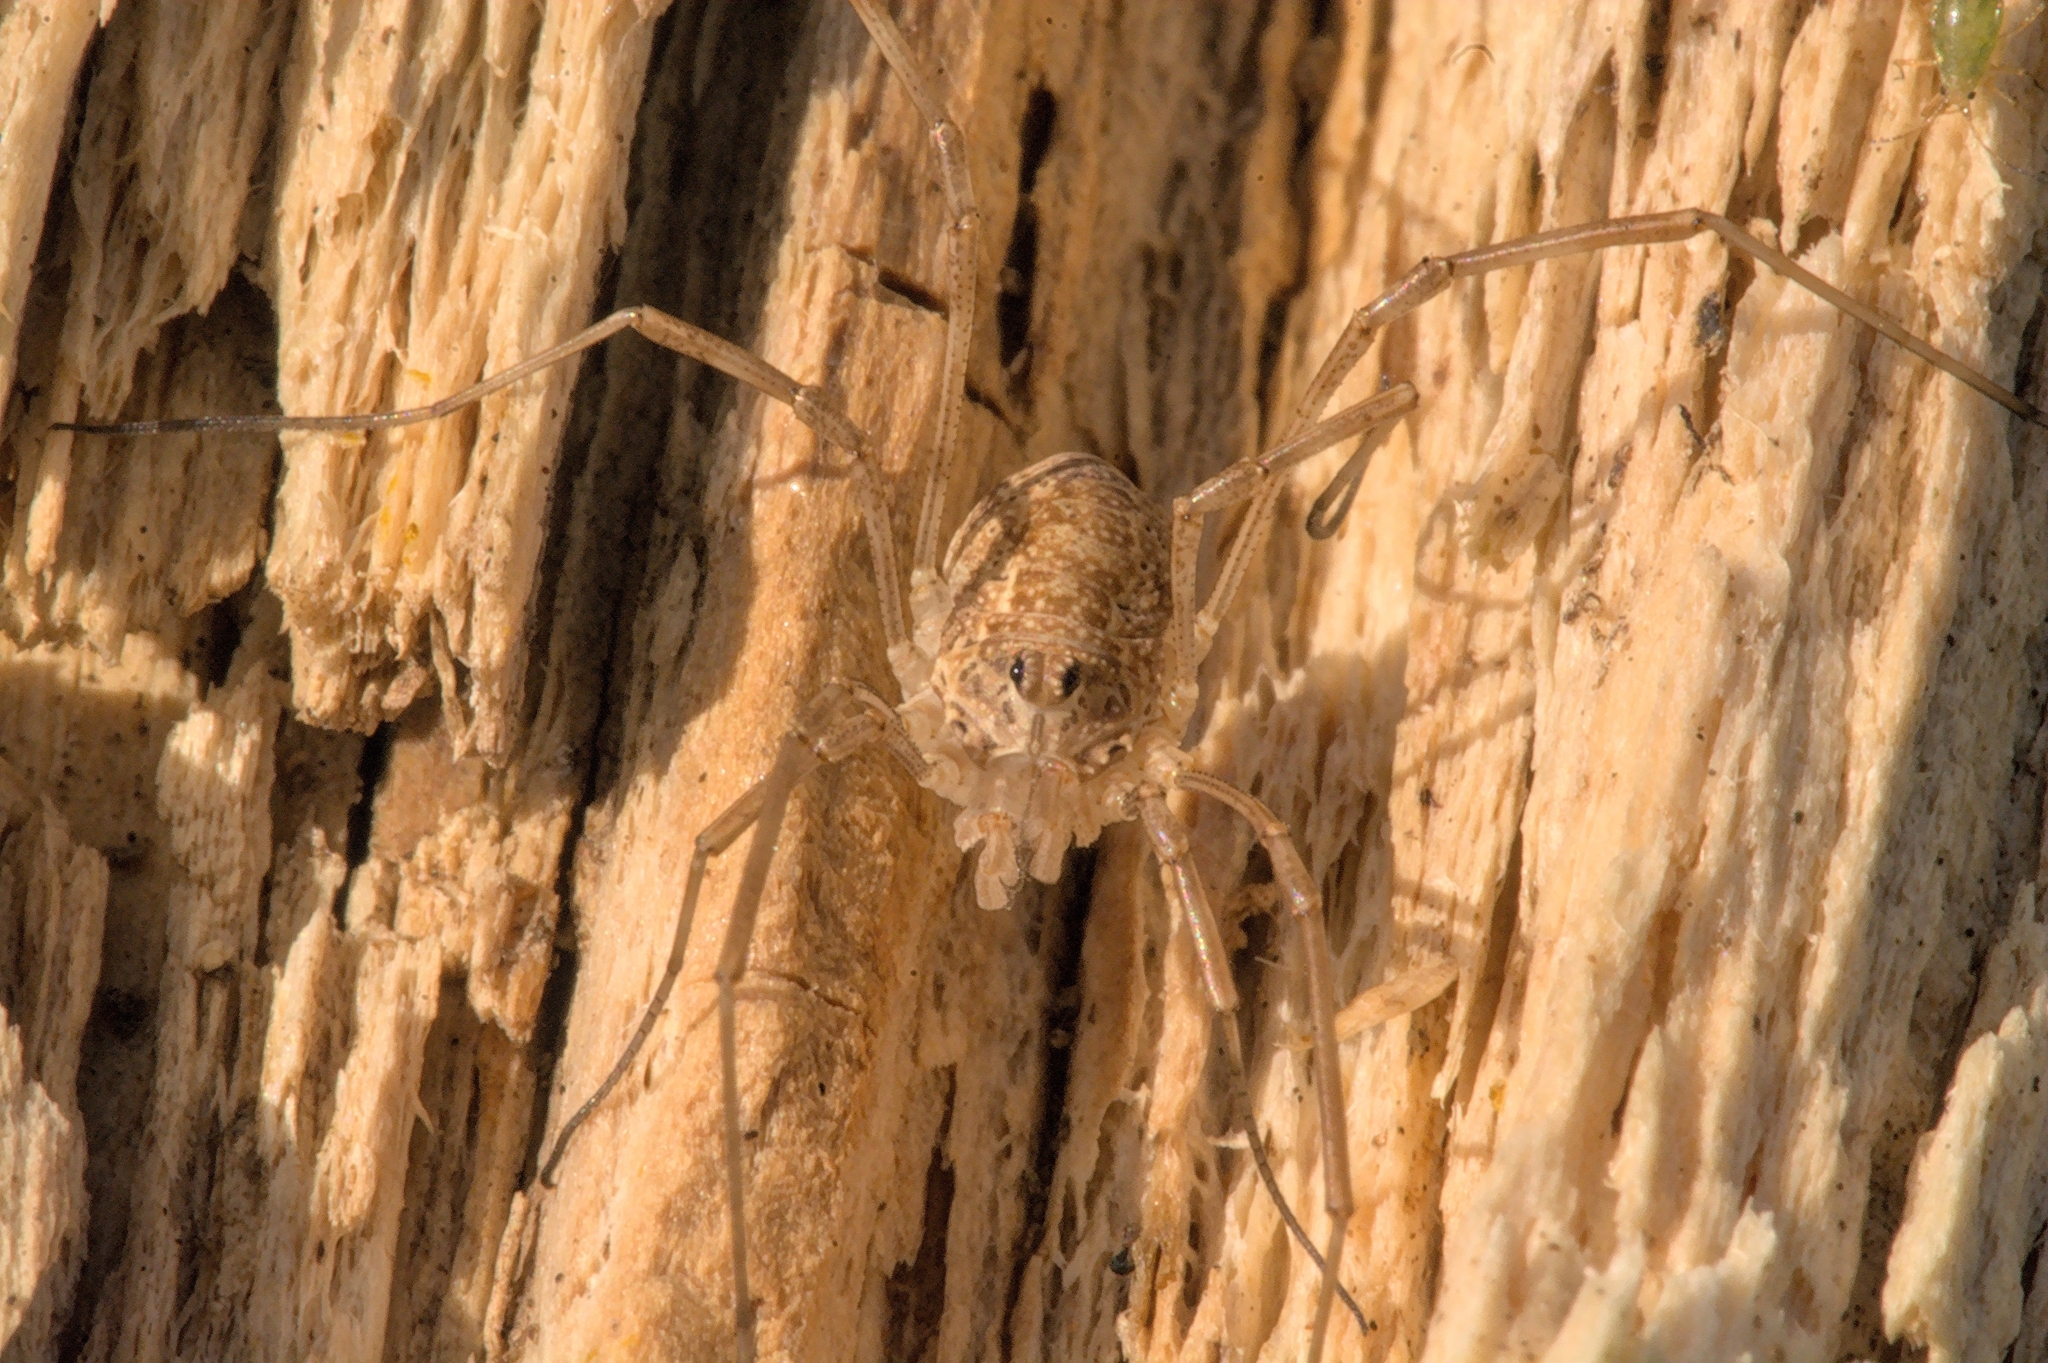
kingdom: Animalia
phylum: Arthropoda
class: Arachnida
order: Opiliones
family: Phalangiidae
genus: Rilaena
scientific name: Rilaena triangularis
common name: Spring harvestman
